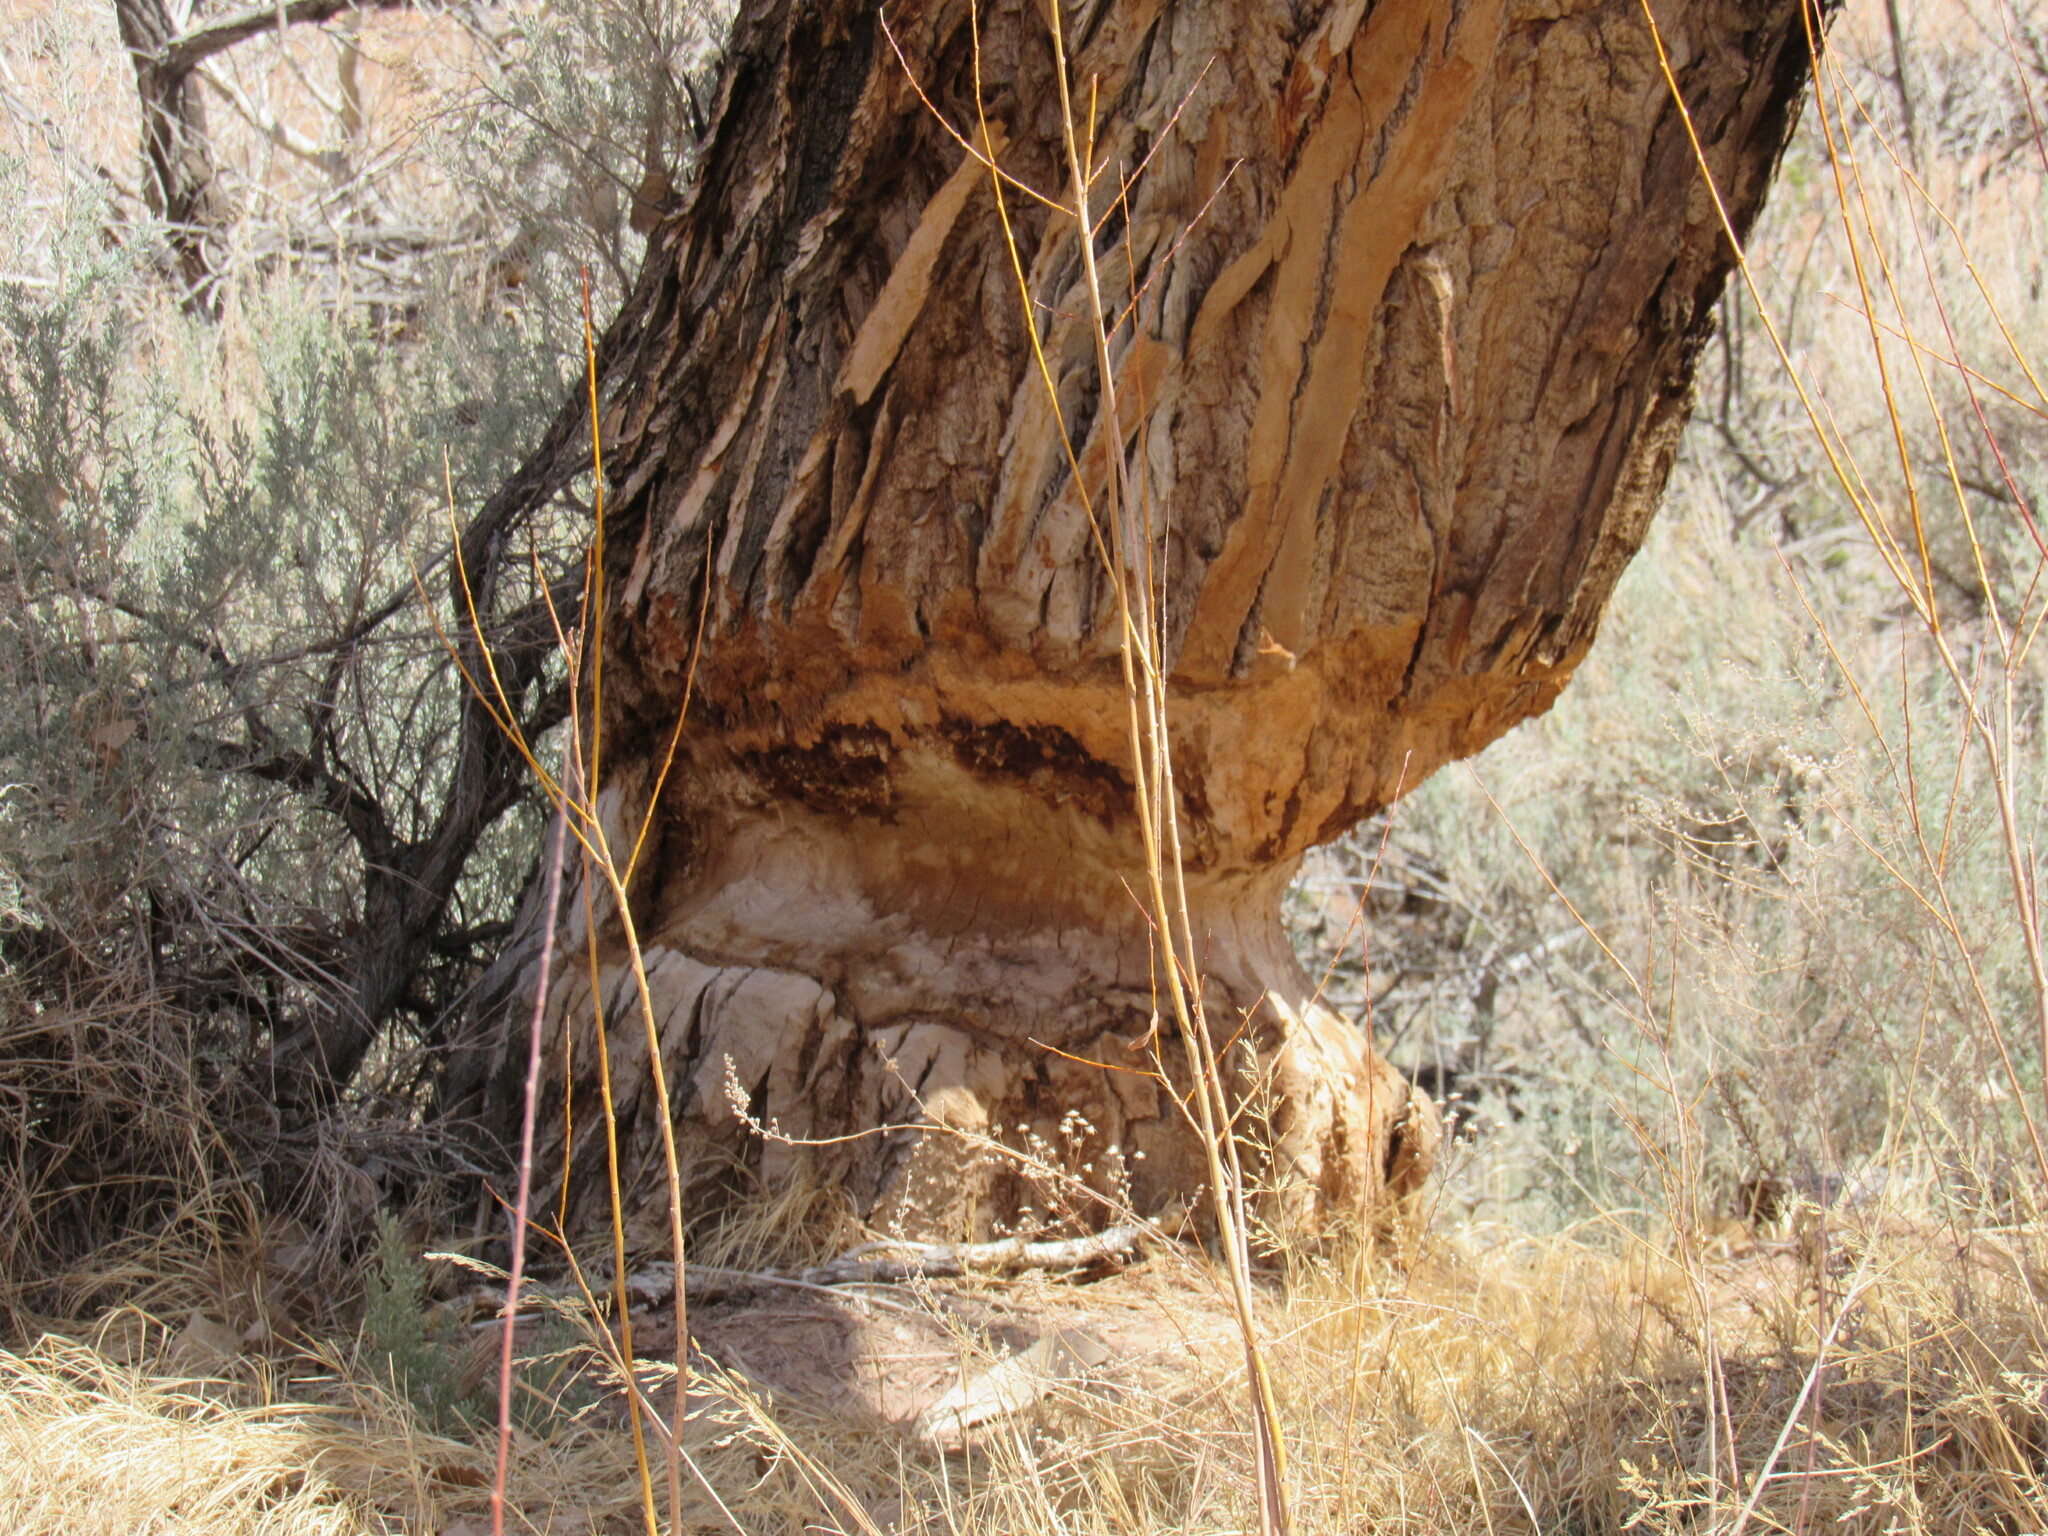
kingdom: Animalia
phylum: Chordata
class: Mammalia
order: Rodentia
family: Castoridae
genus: Castor
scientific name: Castor canadensis
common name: American beaver
